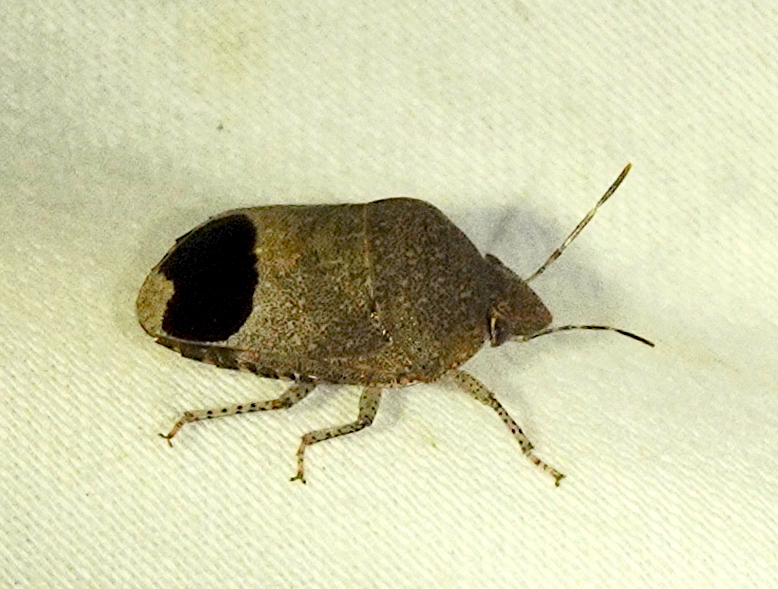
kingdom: Animalia
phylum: Arthropoda
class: Insecta
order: Hemiptera
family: Scutelleridae
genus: Symphylus
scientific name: Symphylus caribbeanus
